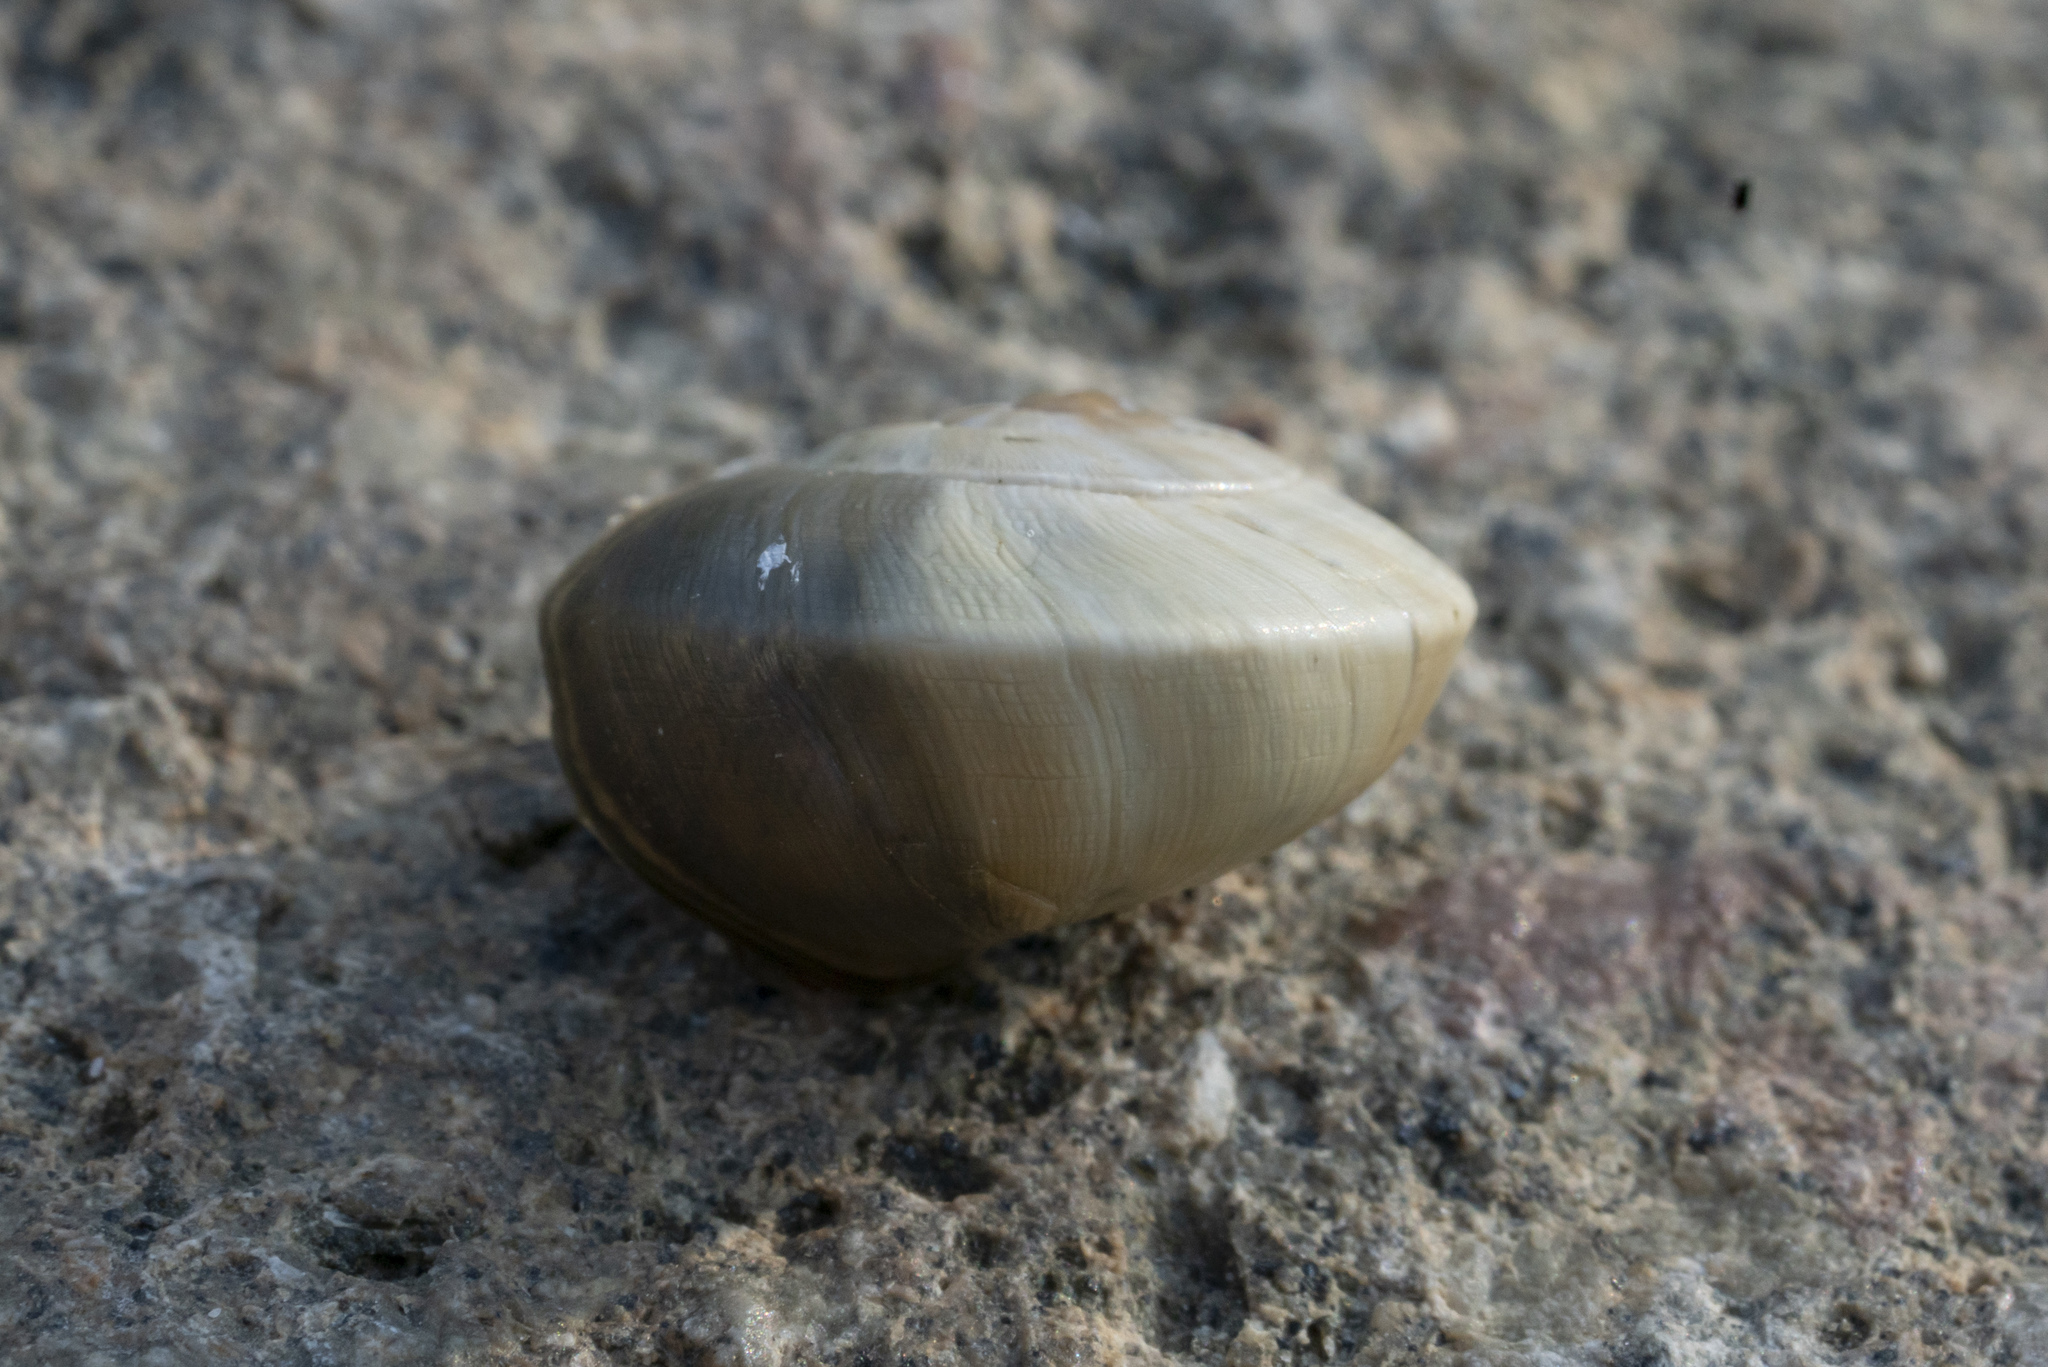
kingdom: Animalia
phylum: Mollusca
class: Gastropoda
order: Stylommatophora
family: Helicidae
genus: Theba
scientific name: Theba pisana
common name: White snail
